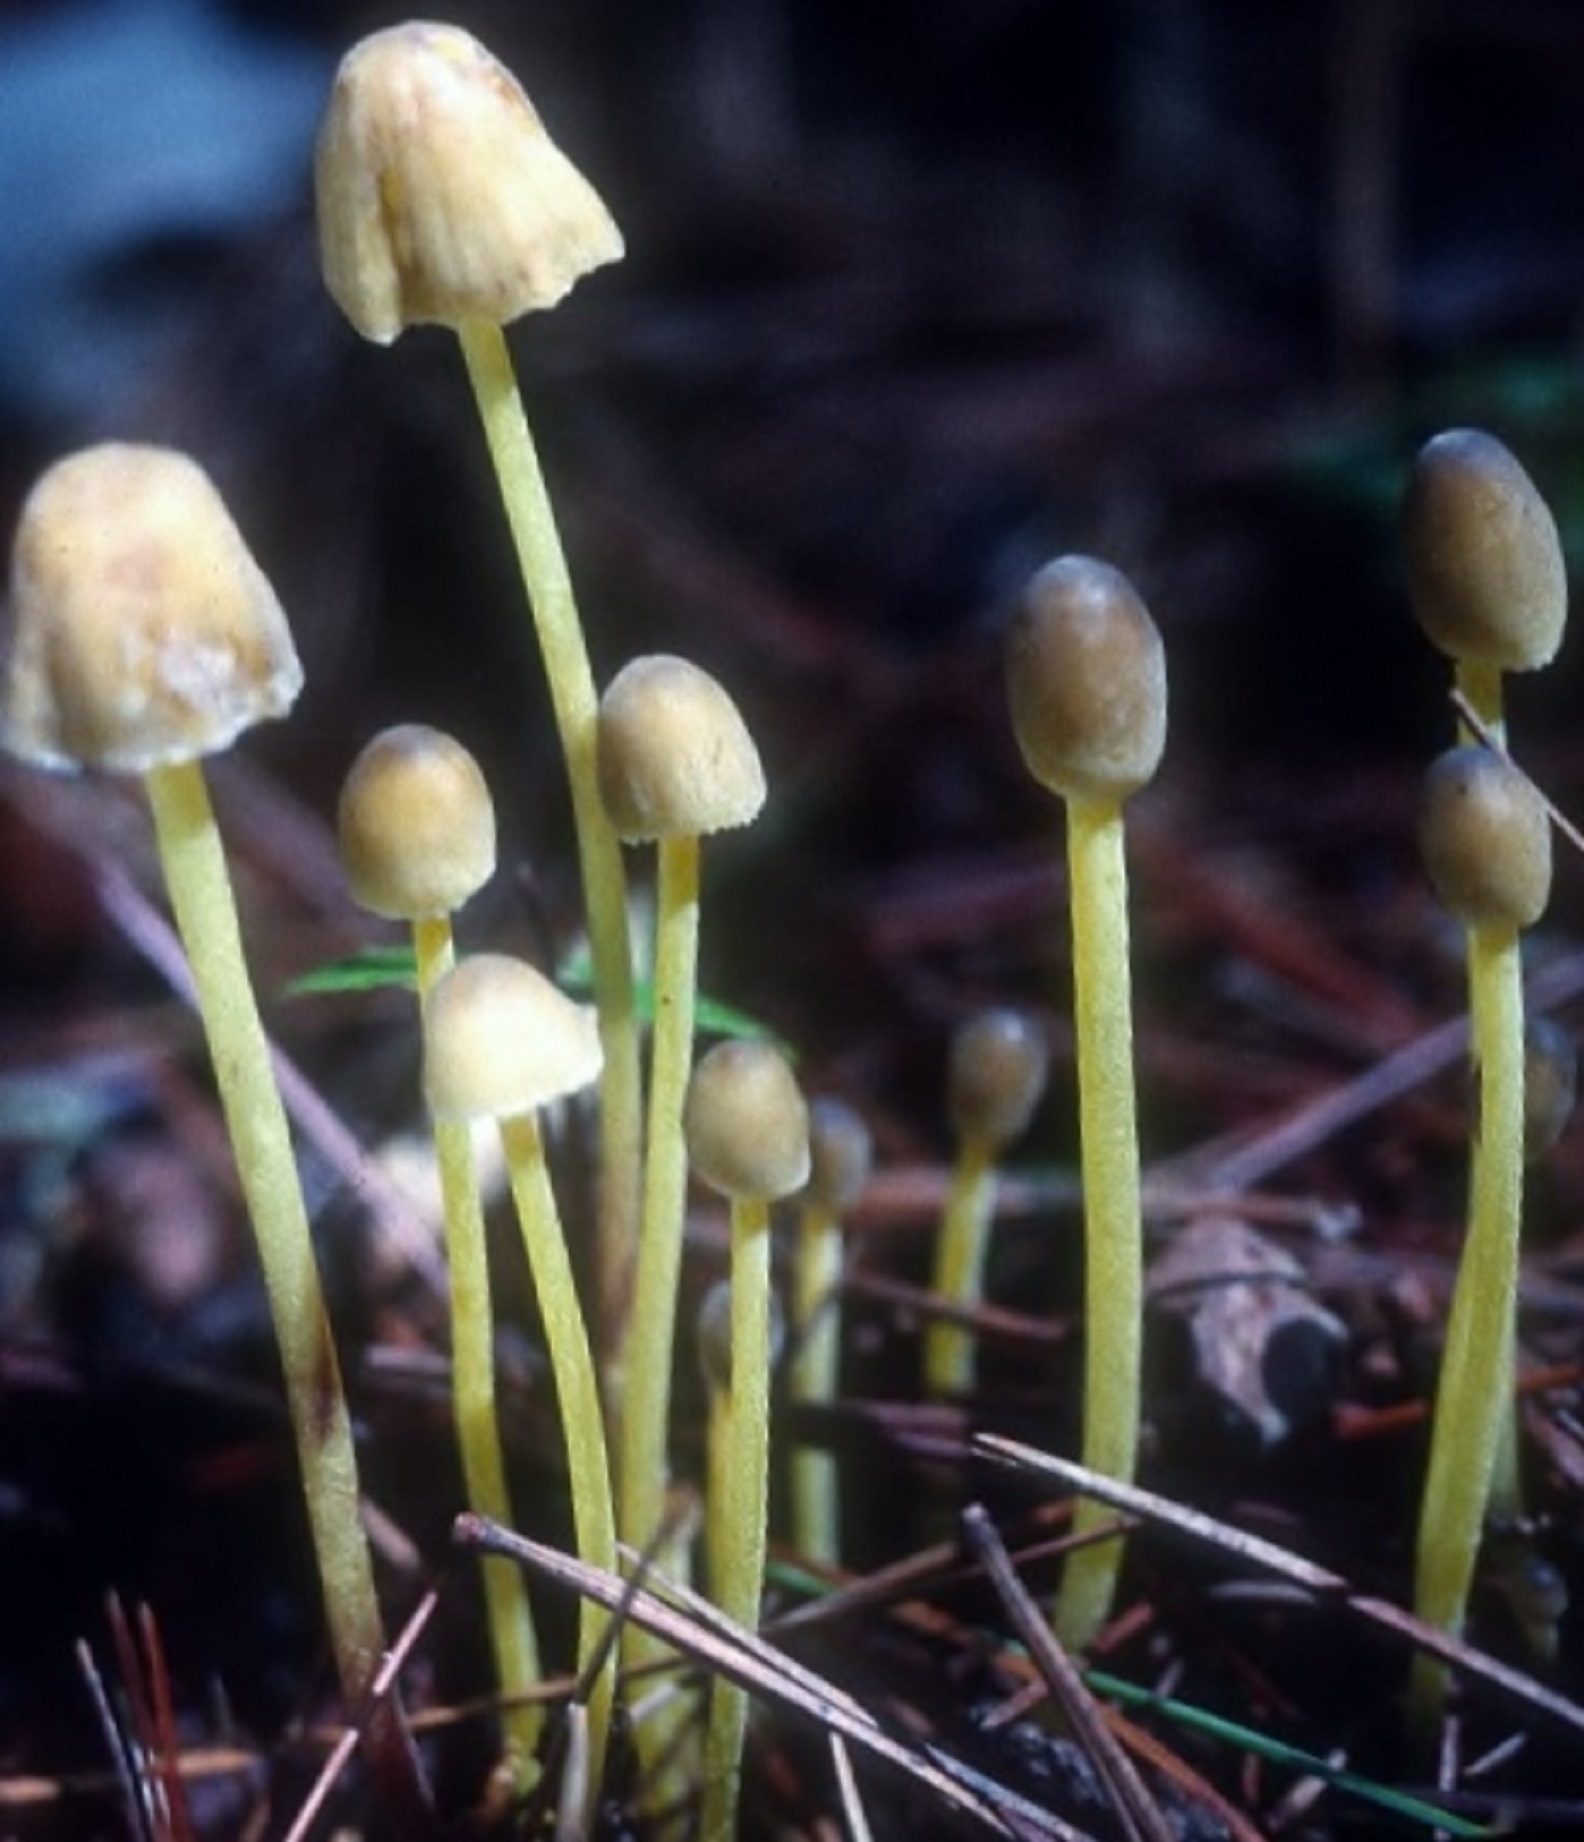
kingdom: Fungi
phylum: Basidiomycota
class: Agaricomycetes
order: Agaricales
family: Mycenaceae
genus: Mycena
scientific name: Mycena epipterygia
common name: Yellowleg bonnet
